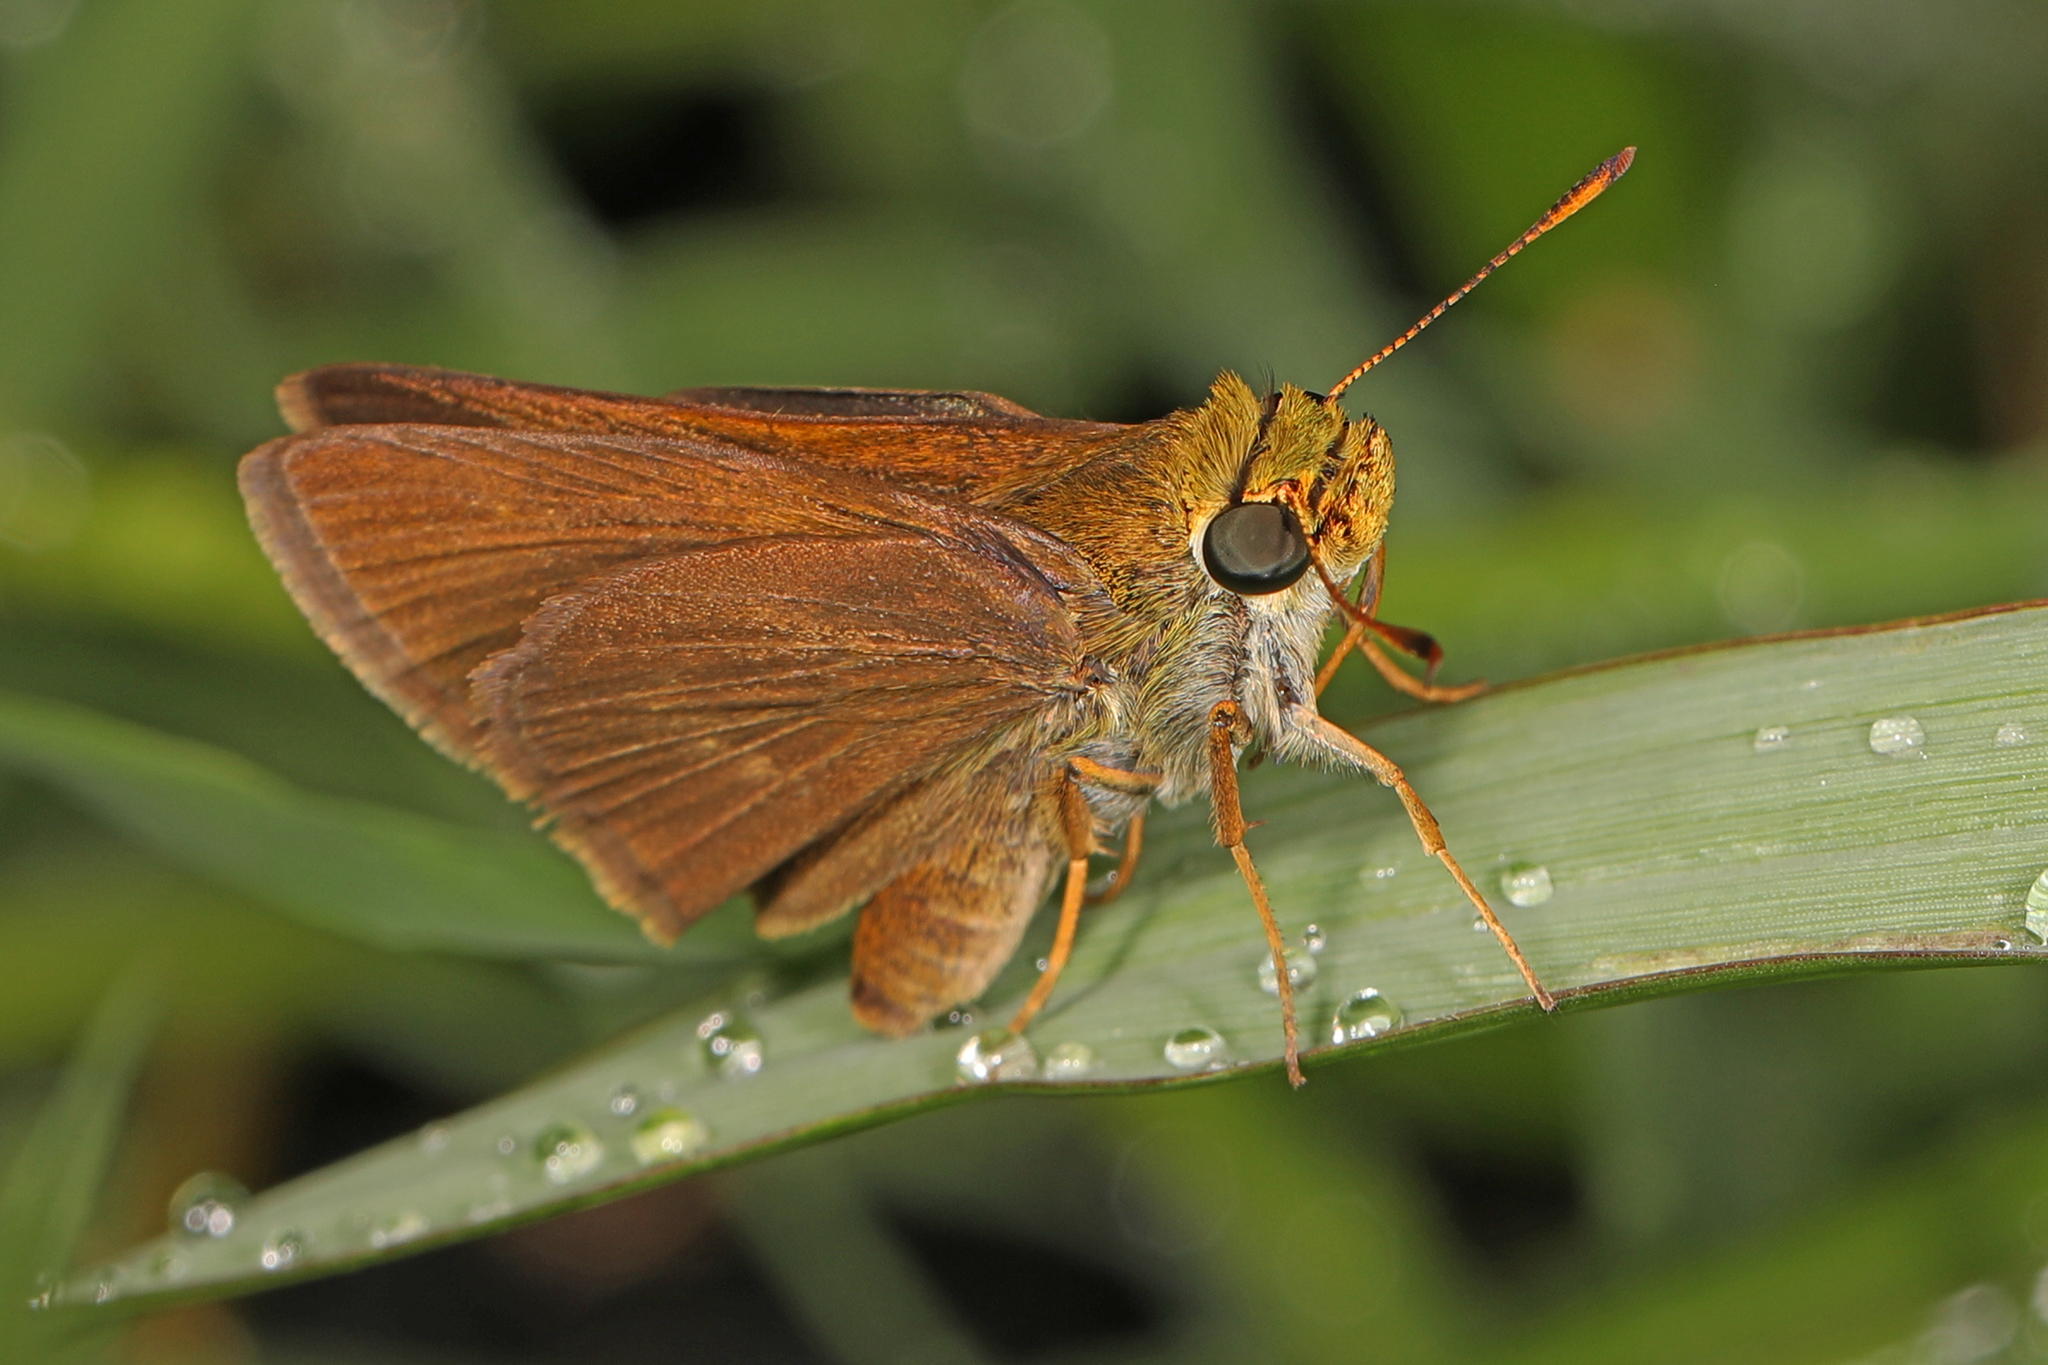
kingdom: Animalia
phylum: Arthropoda
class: Insecta
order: Lepidoptera
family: Hesperiidae
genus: Euphyes
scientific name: Euphyes vestris
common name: Dun skipper
